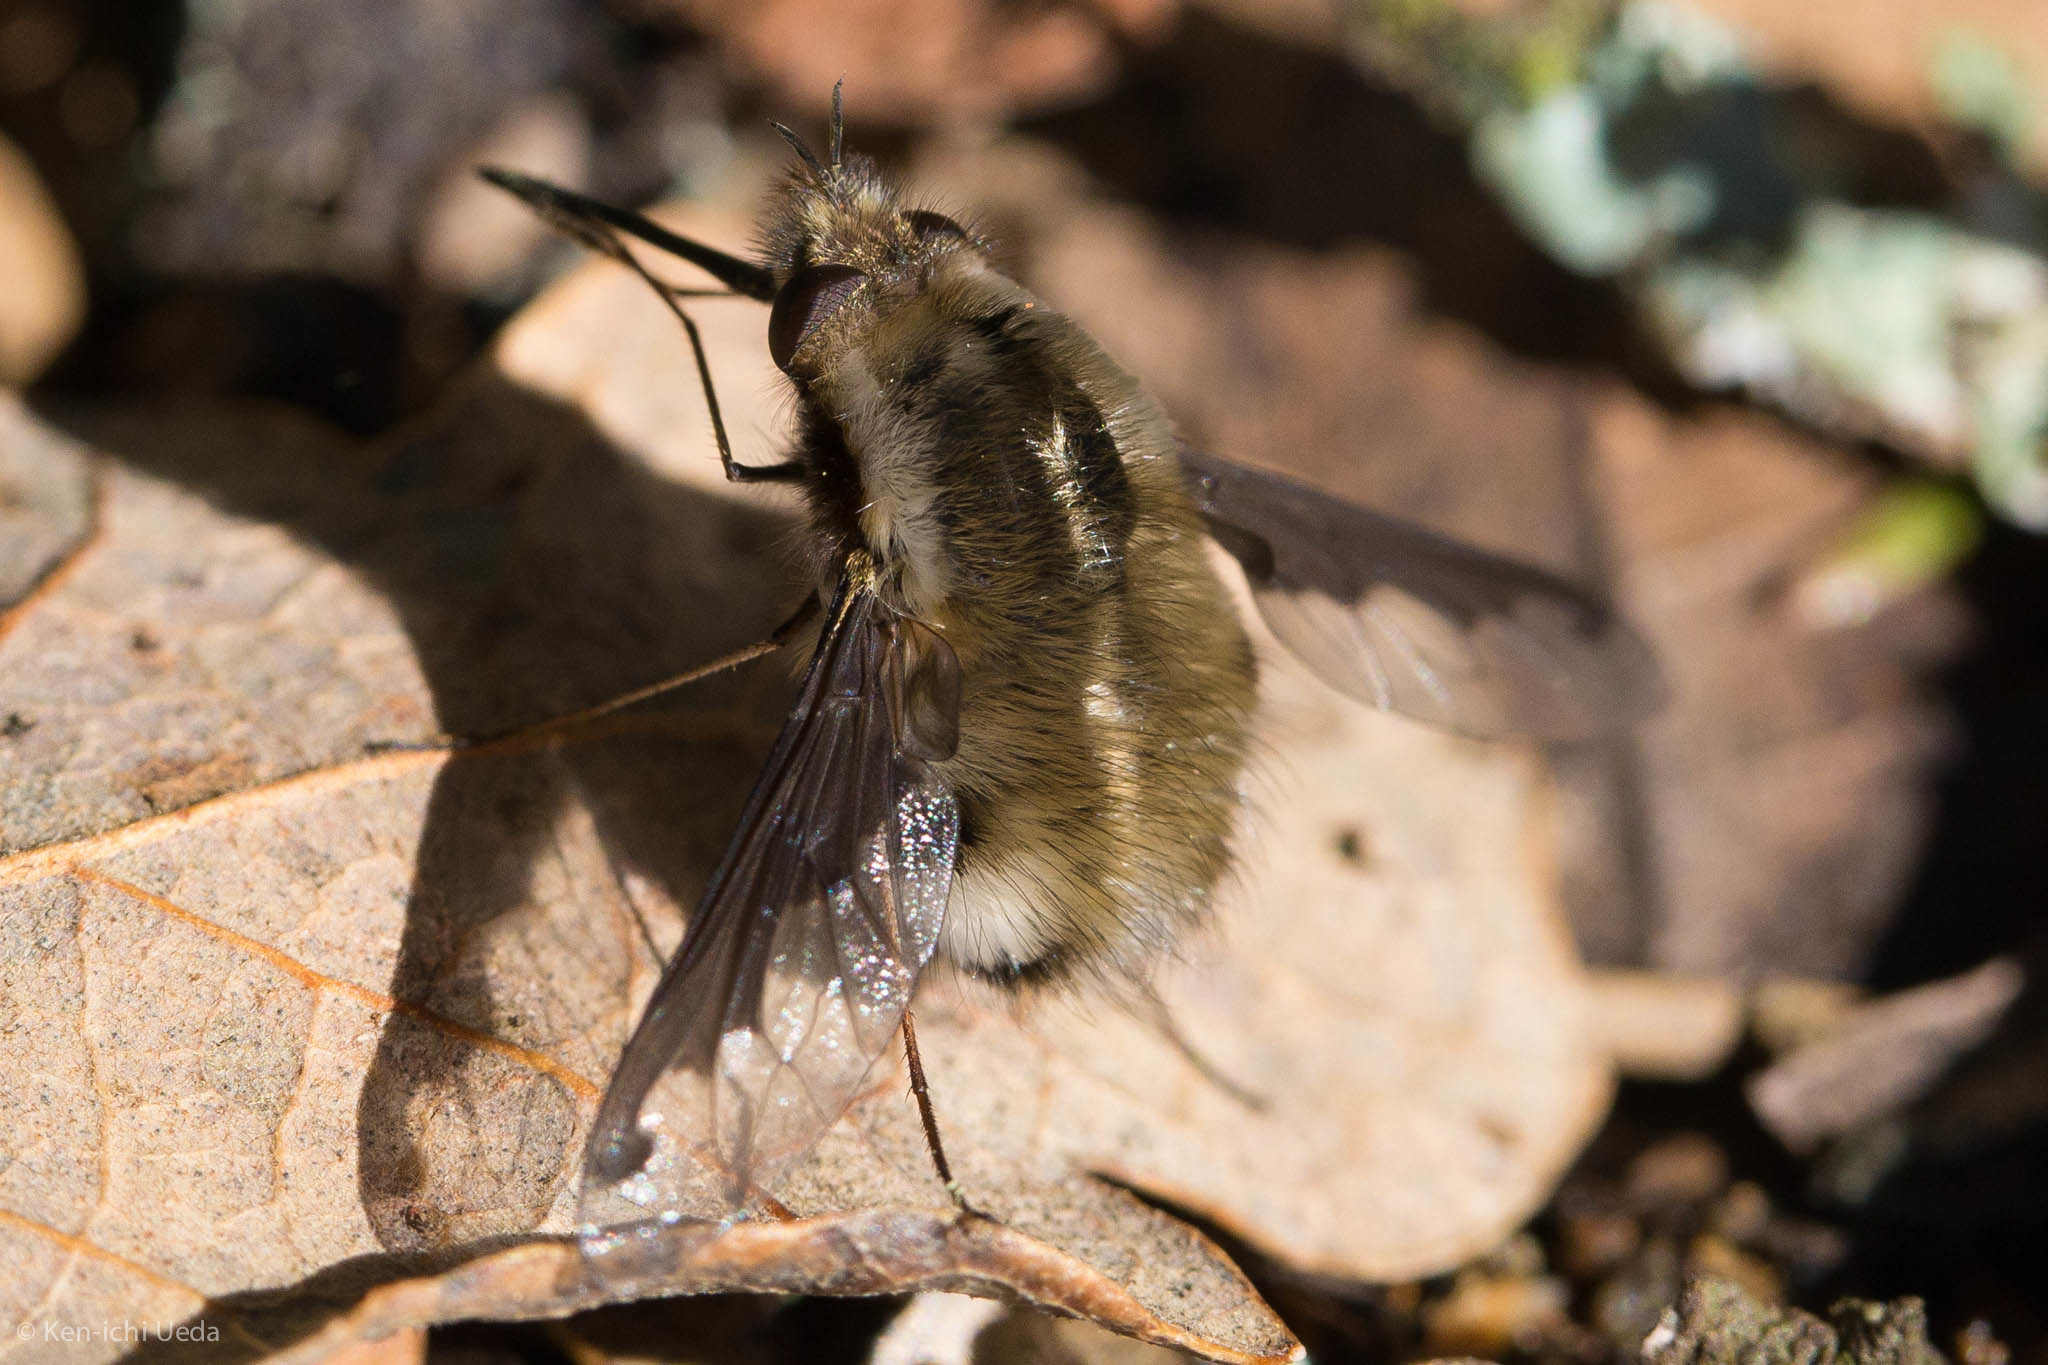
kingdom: Animalia
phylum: Arthropoda
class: Insecta
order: Diptera
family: Bombyliidae
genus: Bombylius
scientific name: Bombylius major
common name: Bee fly
